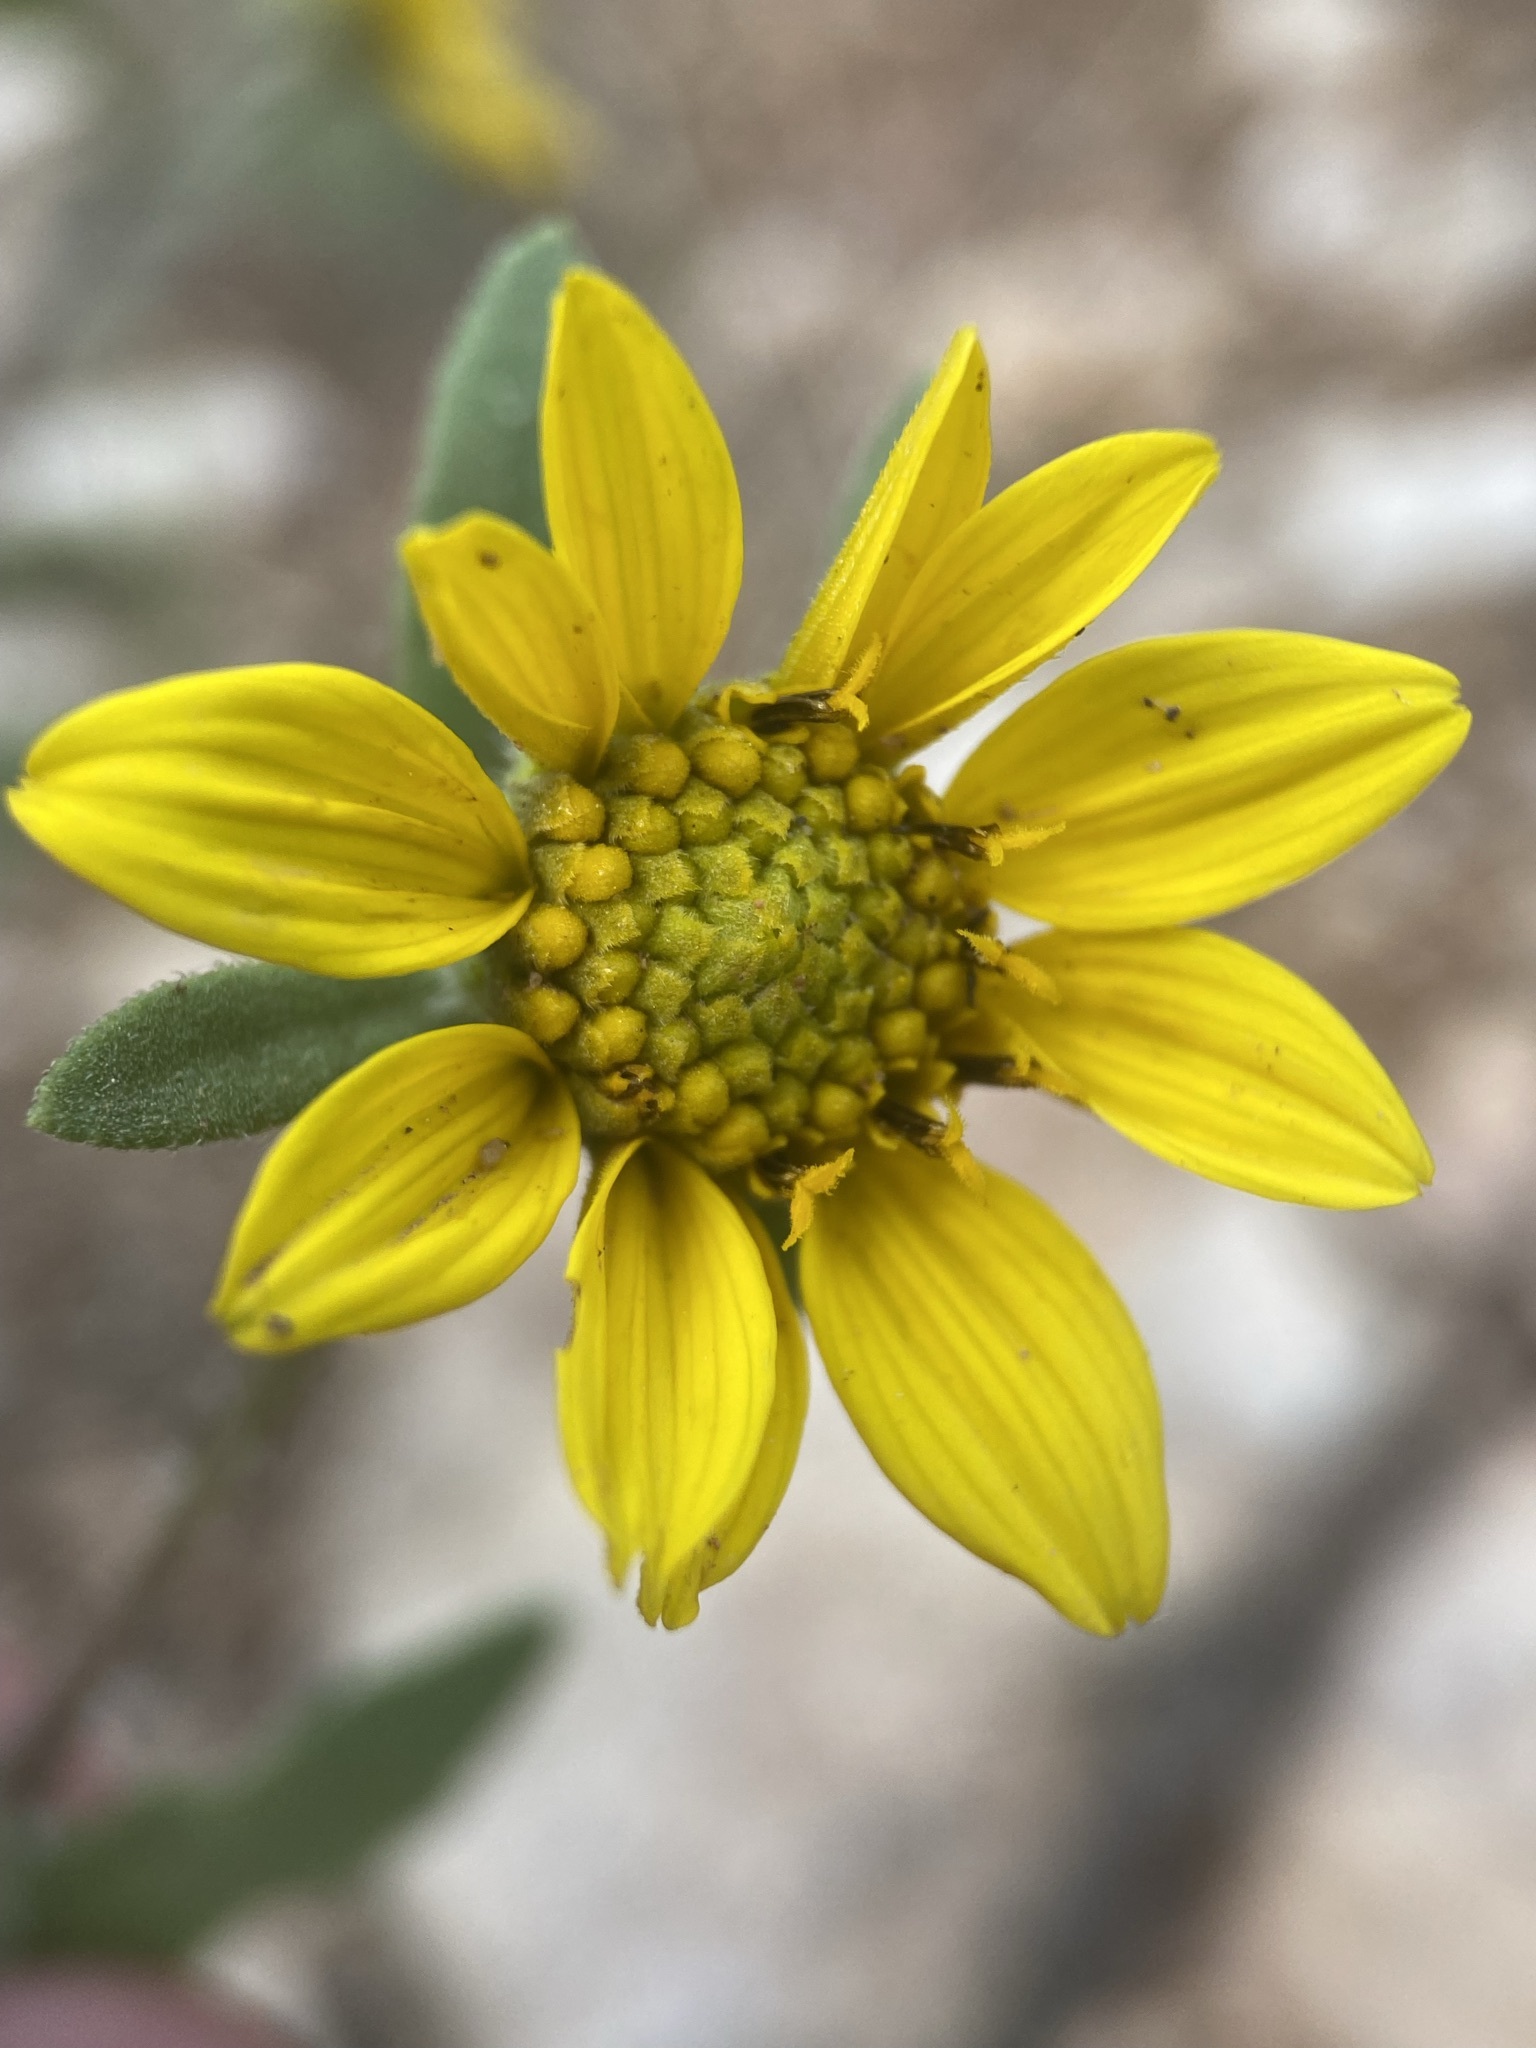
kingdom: Plantae
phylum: Tracheophyta
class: Magnoliopsida
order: Asterales
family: Asteraceae
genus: Helianthus
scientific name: Helianthus pumilus
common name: Dwarf sunflower
